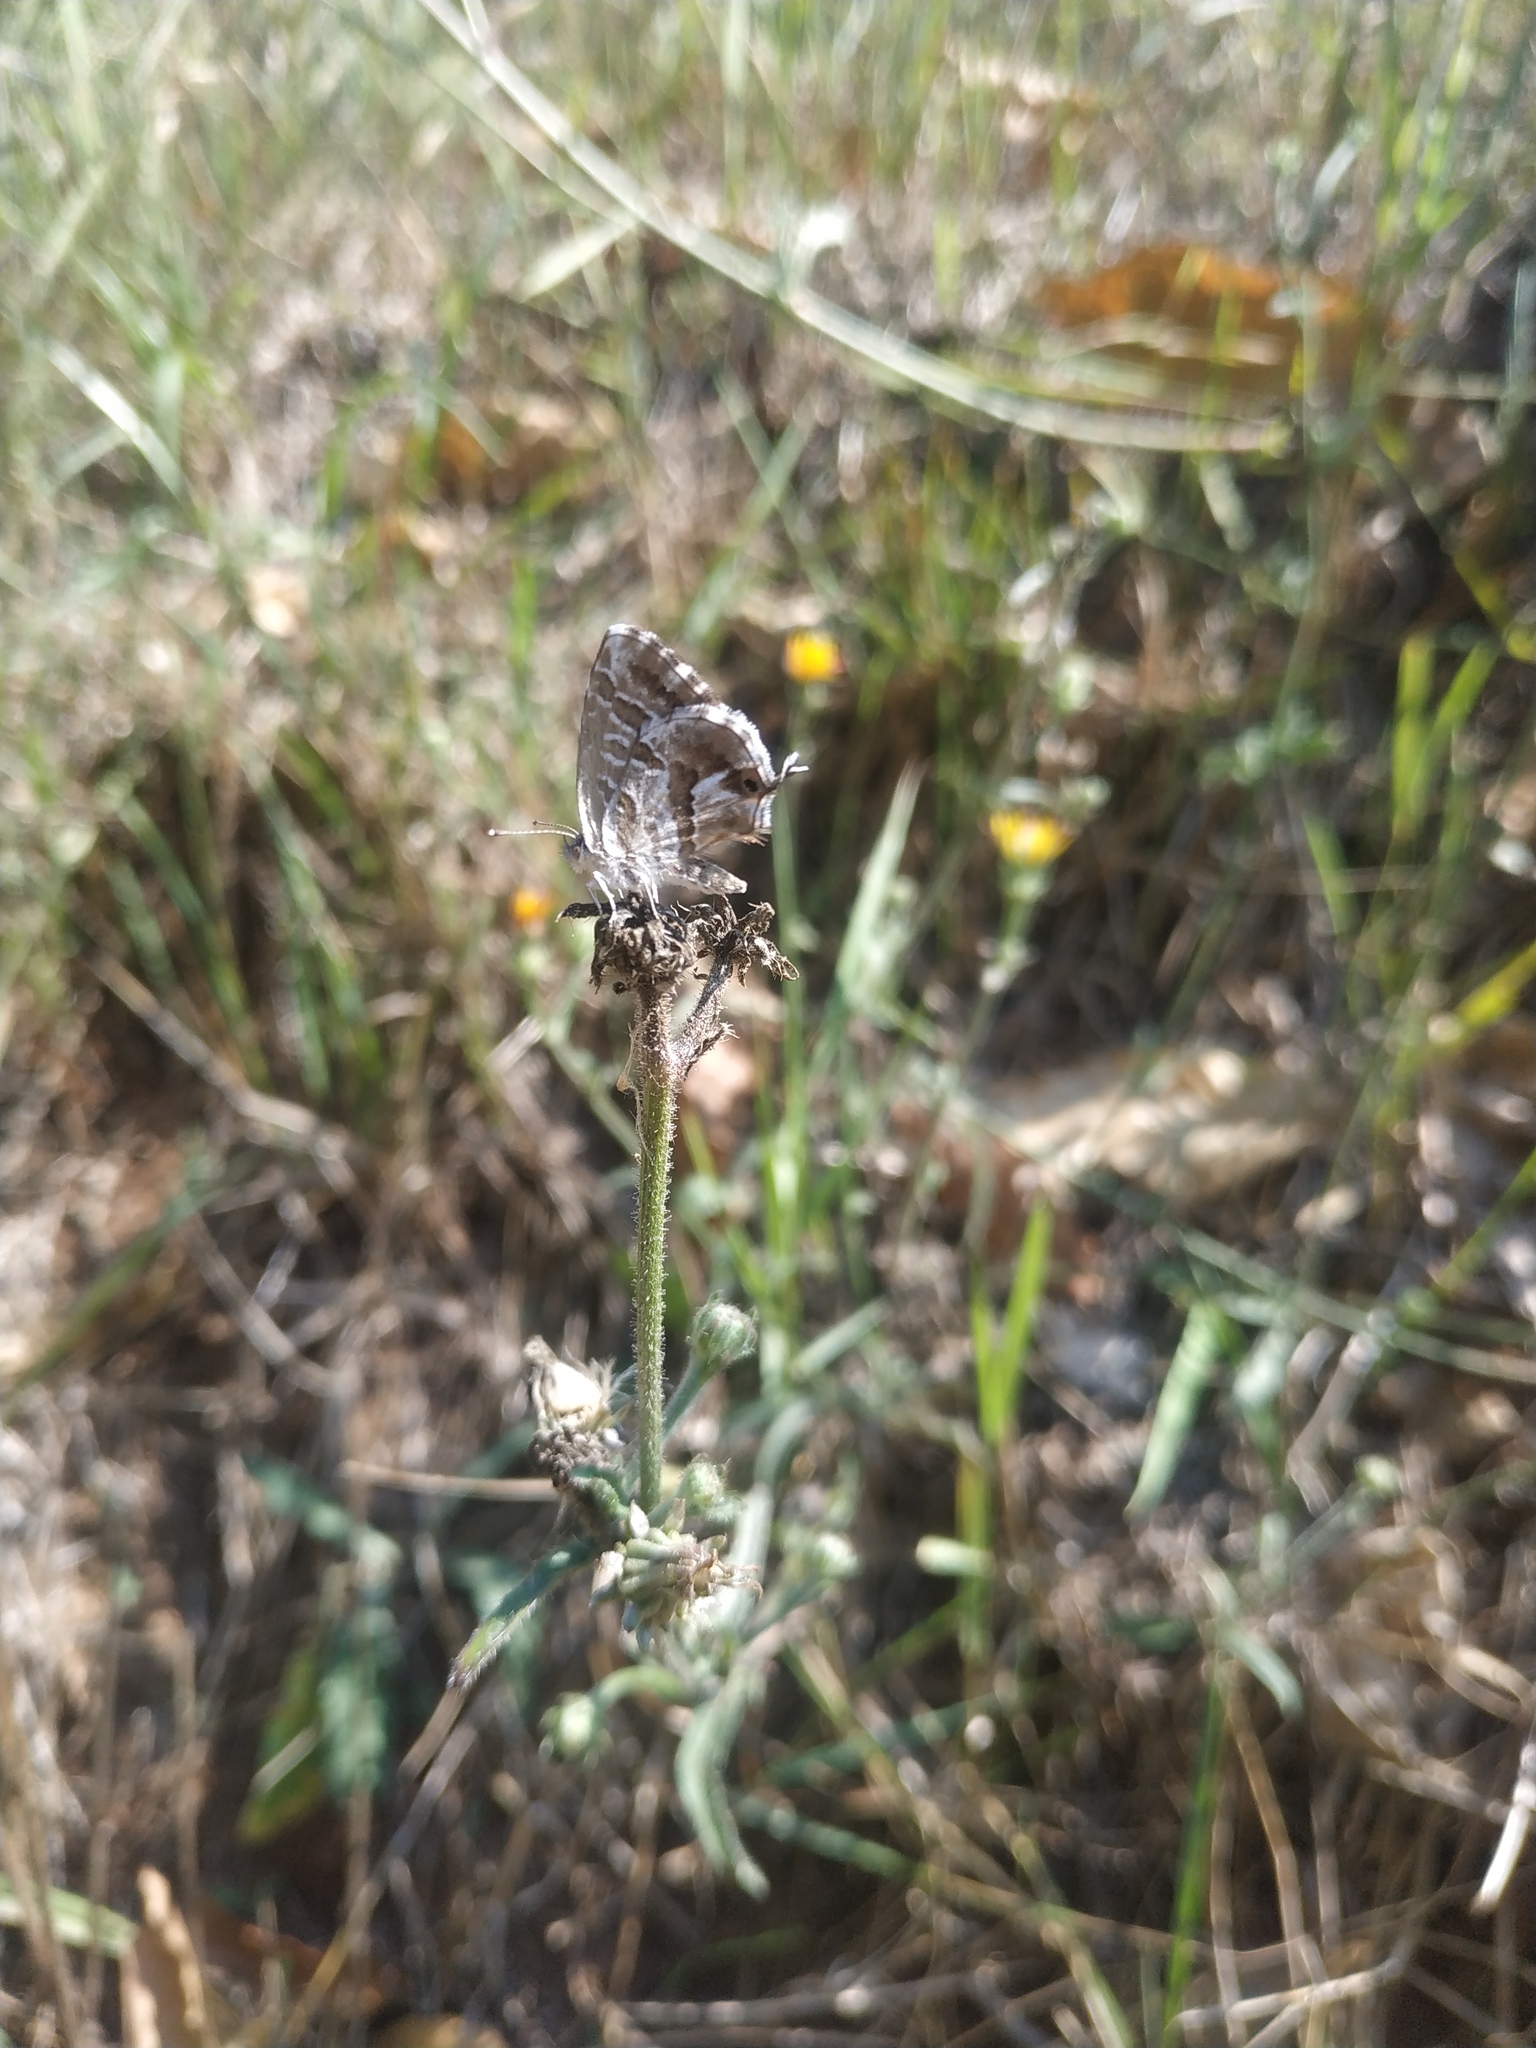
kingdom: Animalia
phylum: Arthropoda
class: Insecta
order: Lepidoptera
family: Lycaenidae
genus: Cacyreus
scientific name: Cacyreus marshalli
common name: Geranium bronze
